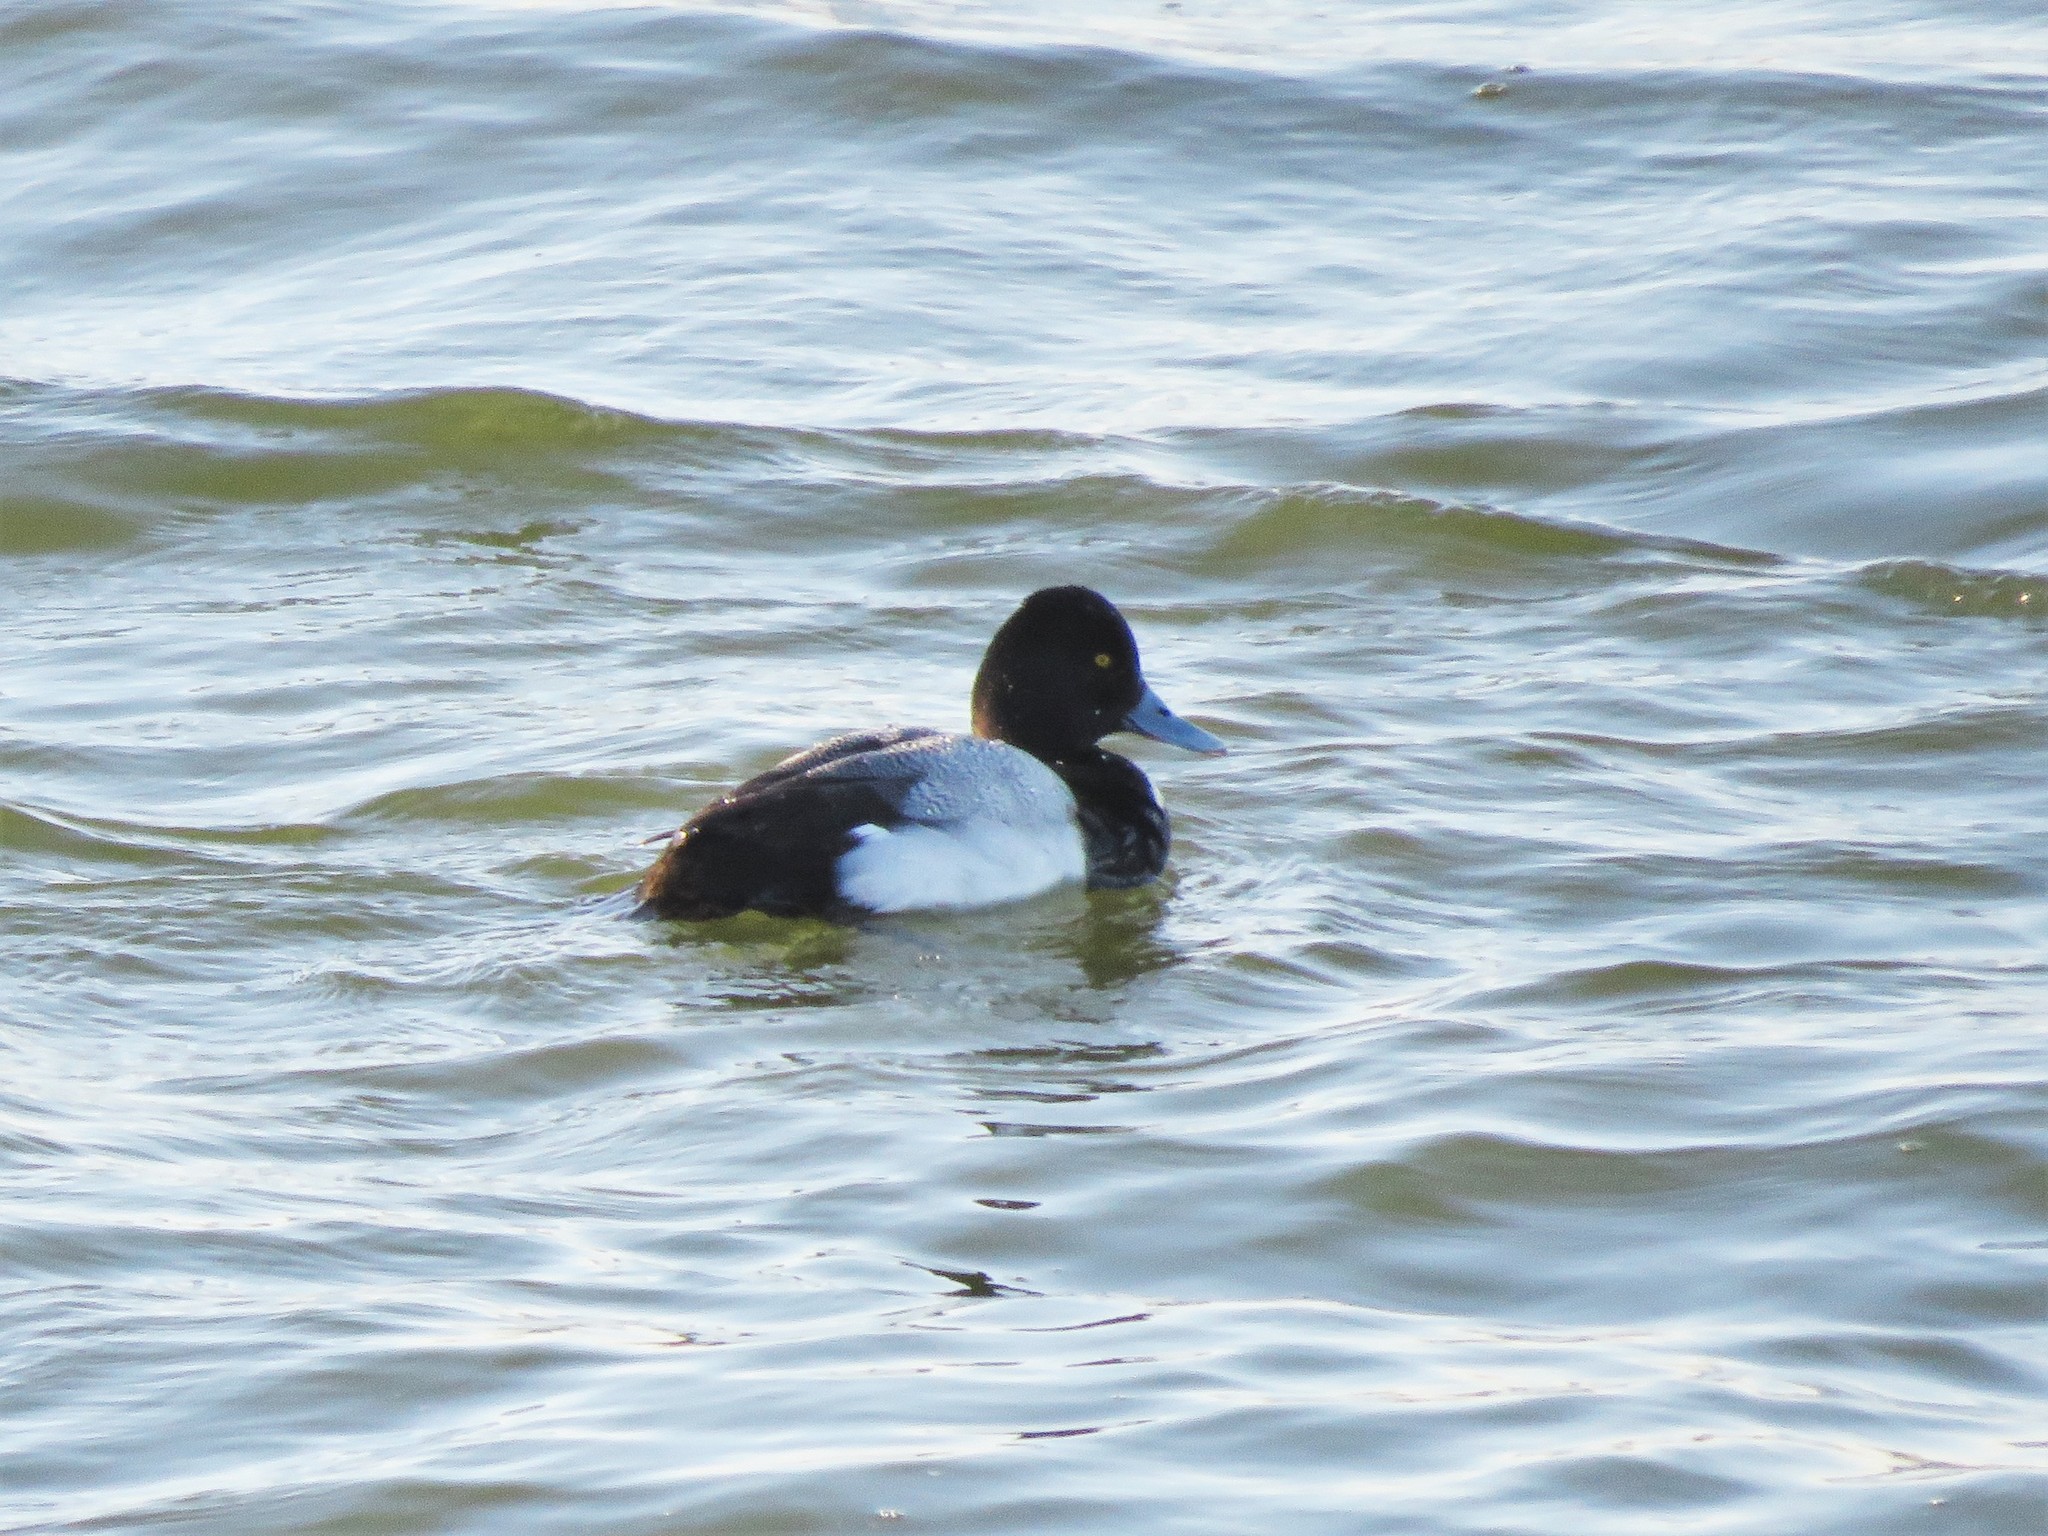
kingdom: Animalia
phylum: Chordata
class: Aves
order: Anseriformes
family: Anatidae
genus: Aythya
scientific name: Aythya affinis
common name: Lesser scaup
